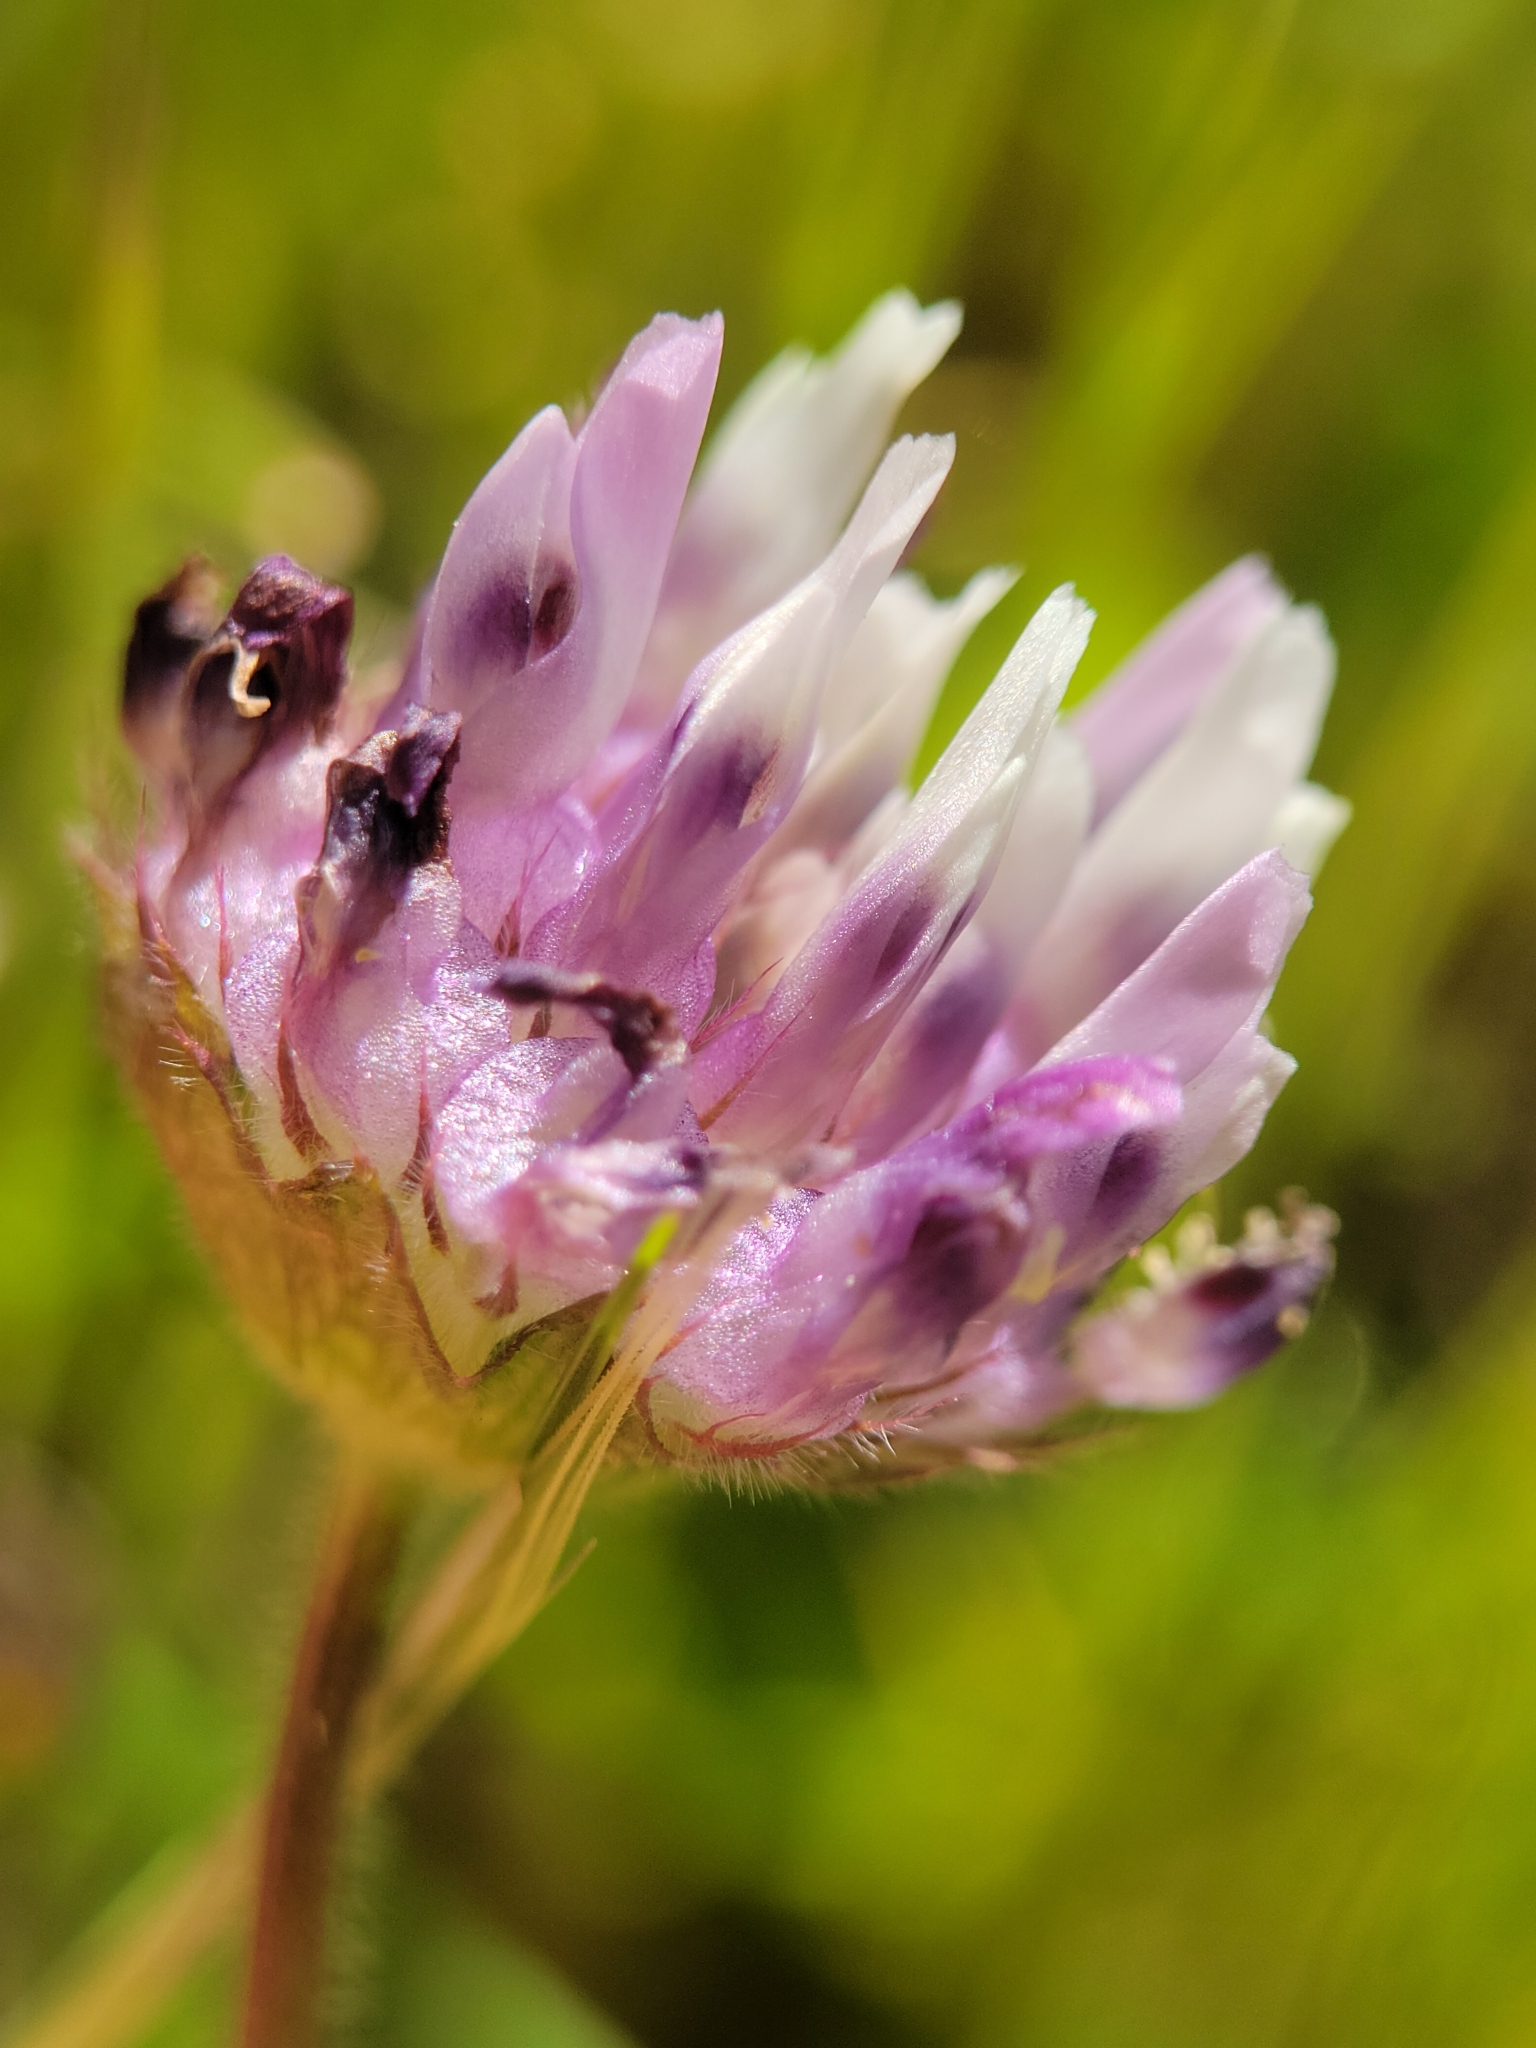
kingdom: Plantae
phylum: Tracheophyta
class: Magnoliopsida
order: Fabales
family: Fabaceae
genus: Trifolium
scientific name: Trifolium barbigerum
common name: Bearded clover
